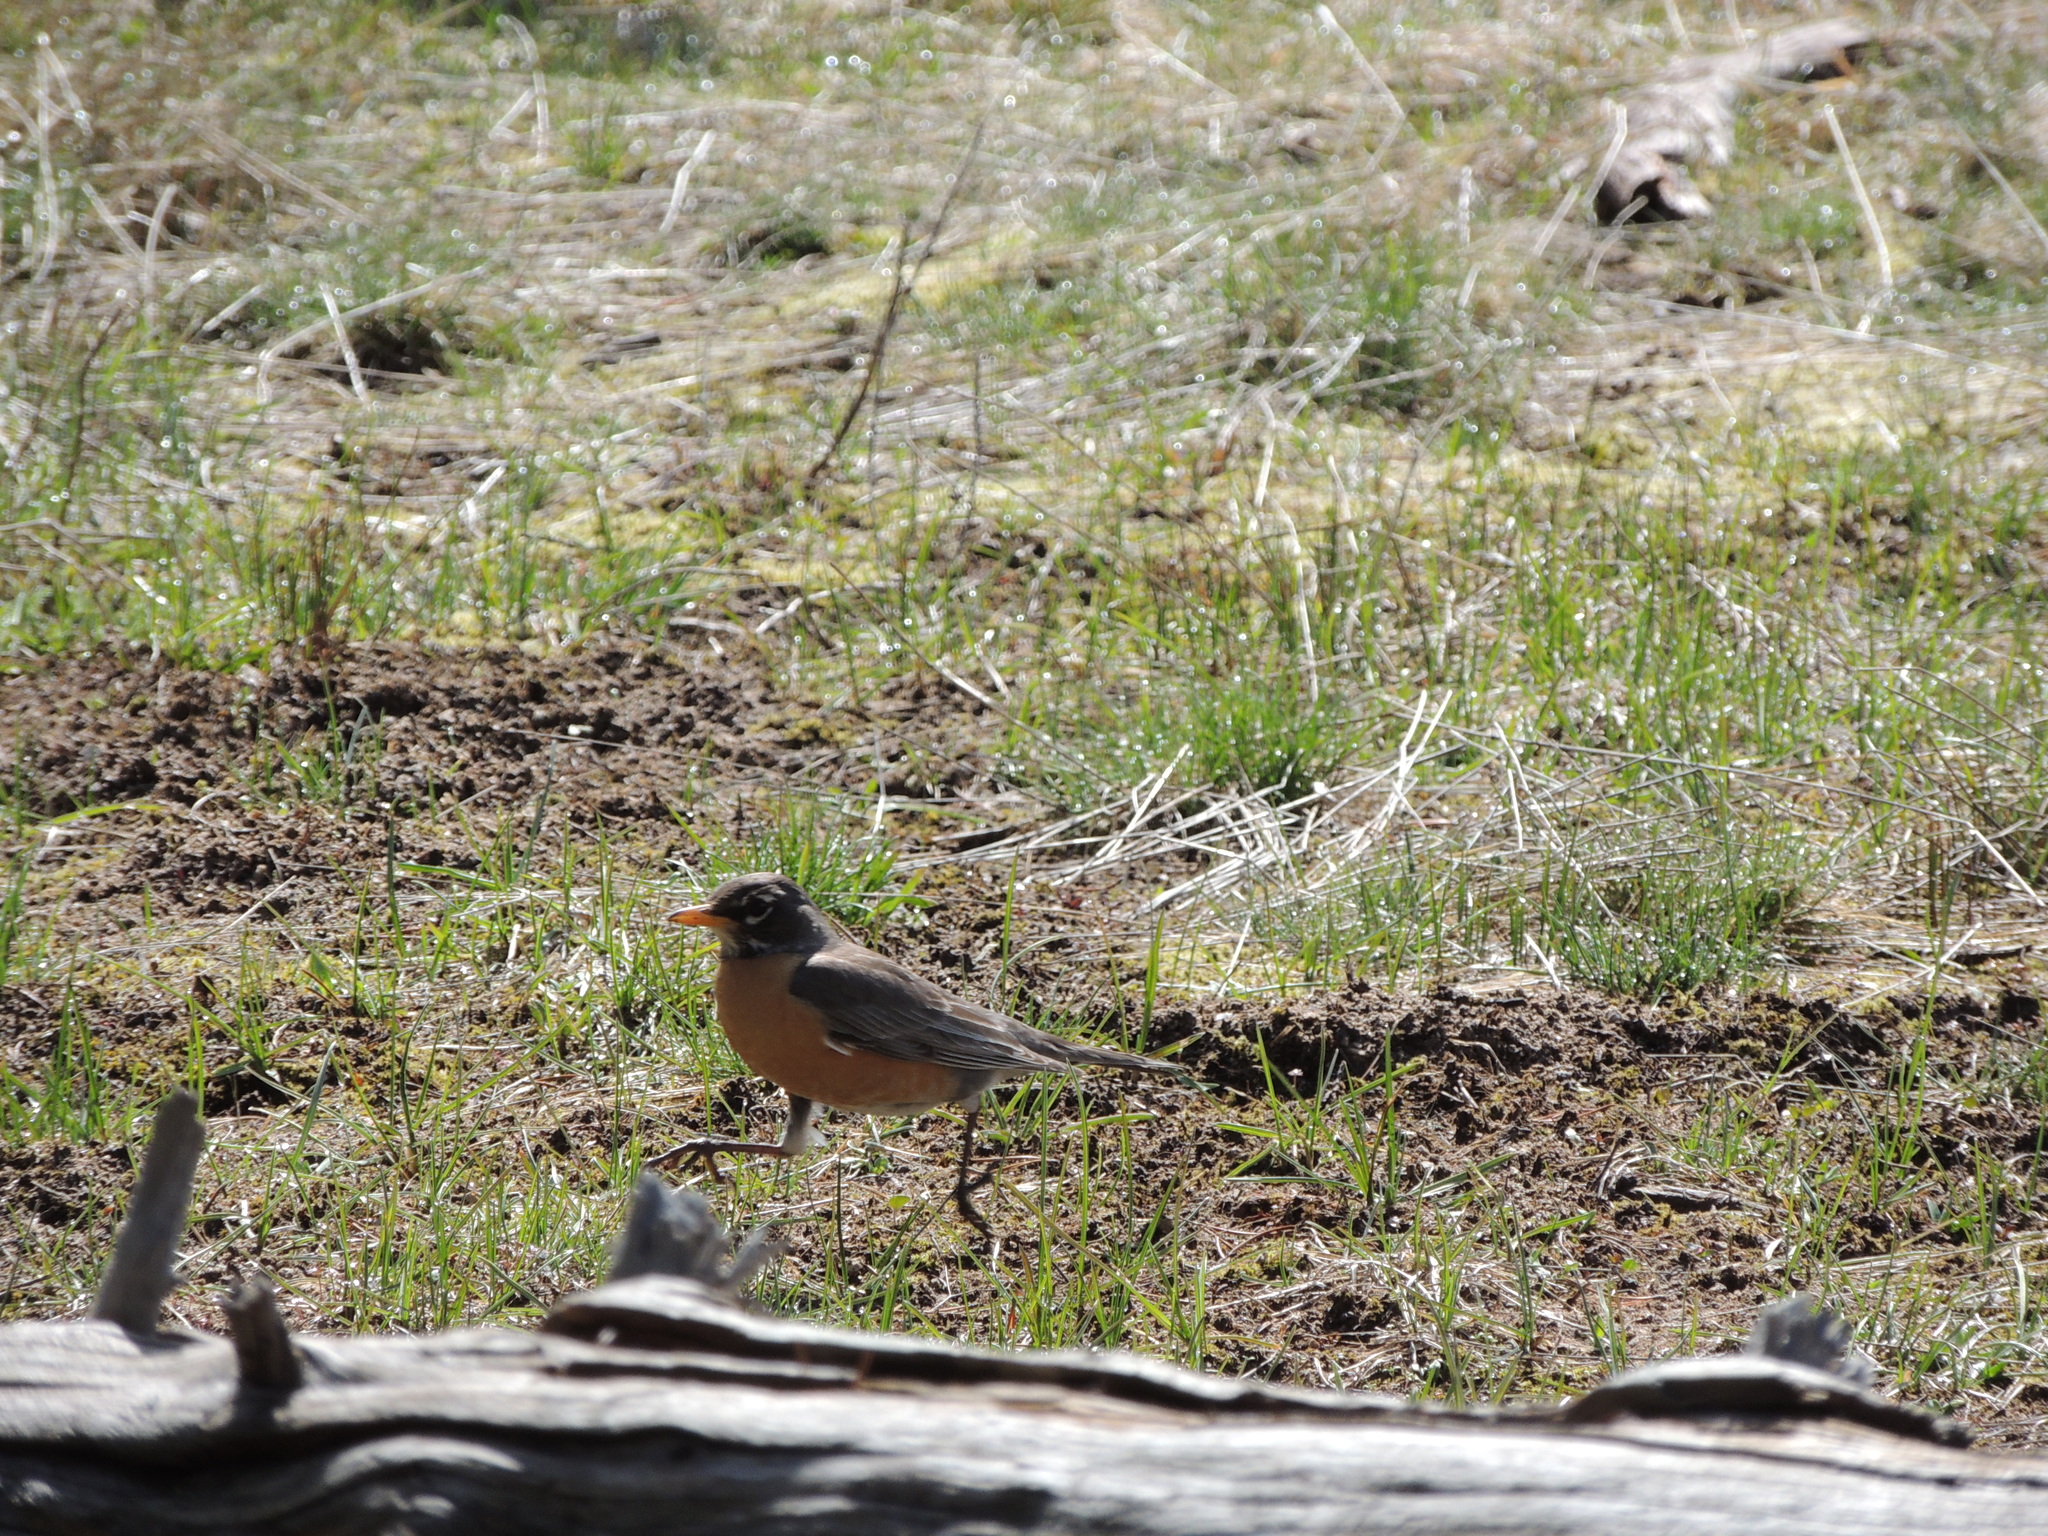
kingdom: Animalia
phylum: Chordata
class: Aves
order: Passeriformes
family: Turdidae
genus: Turdus
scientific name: Turdus migratorius
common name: American robin
